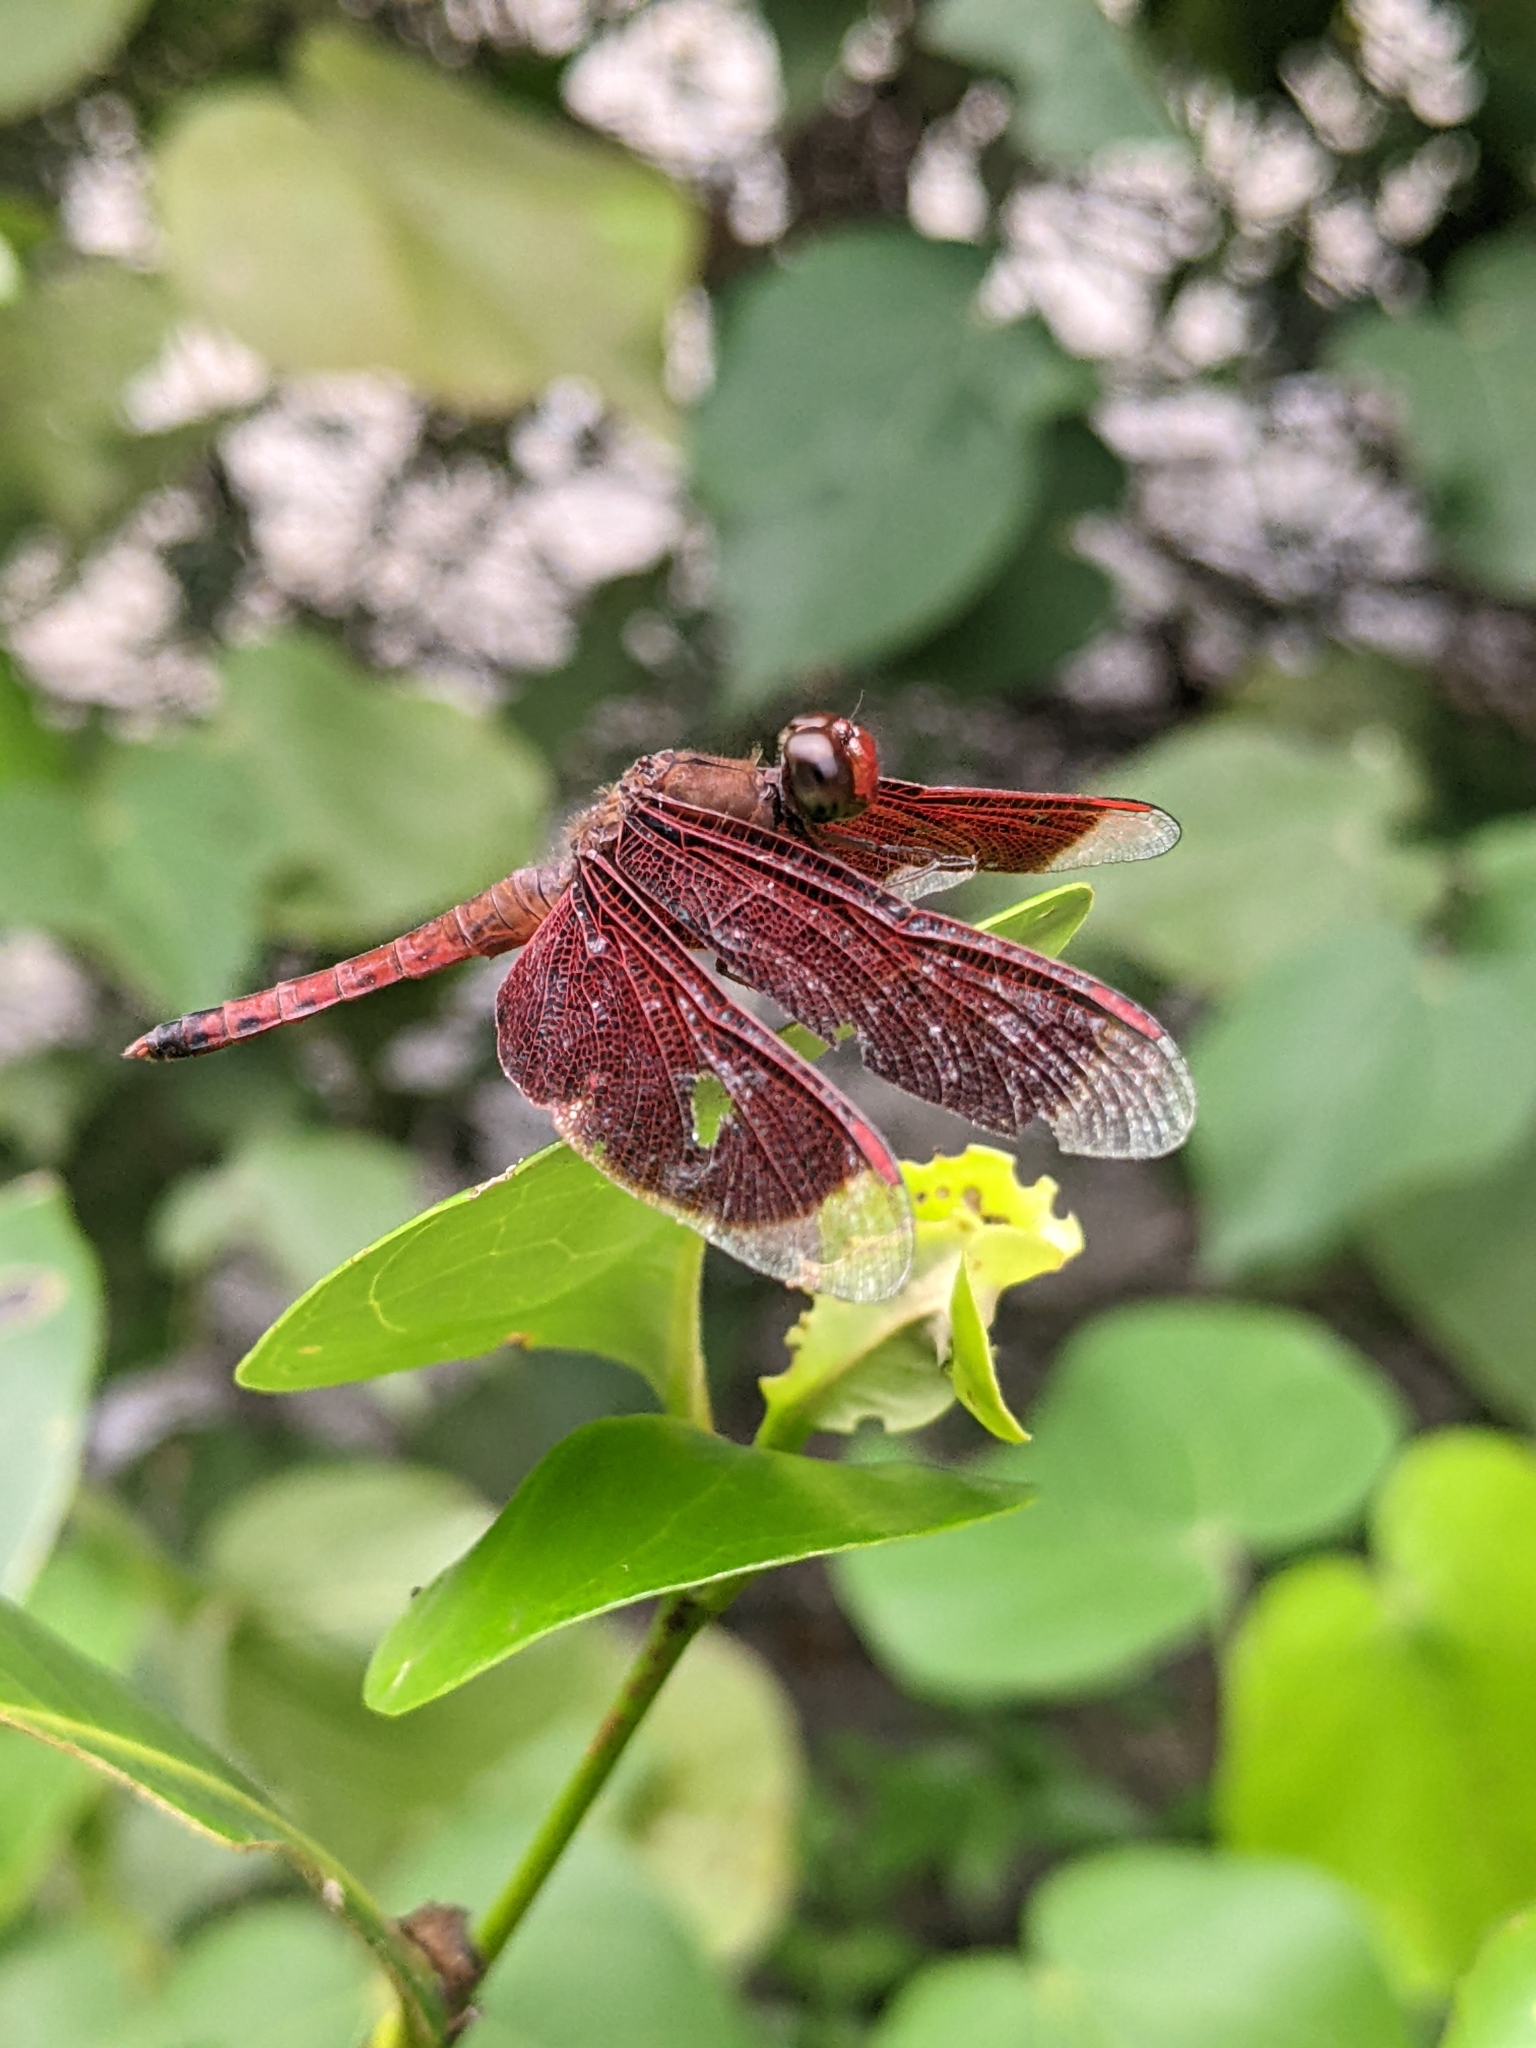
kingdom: Animalia
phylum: Arthropoda
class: Insecta
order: Odonata
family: Libellulidae
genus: Neurothemis
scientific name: Neurothemis fluctuans
